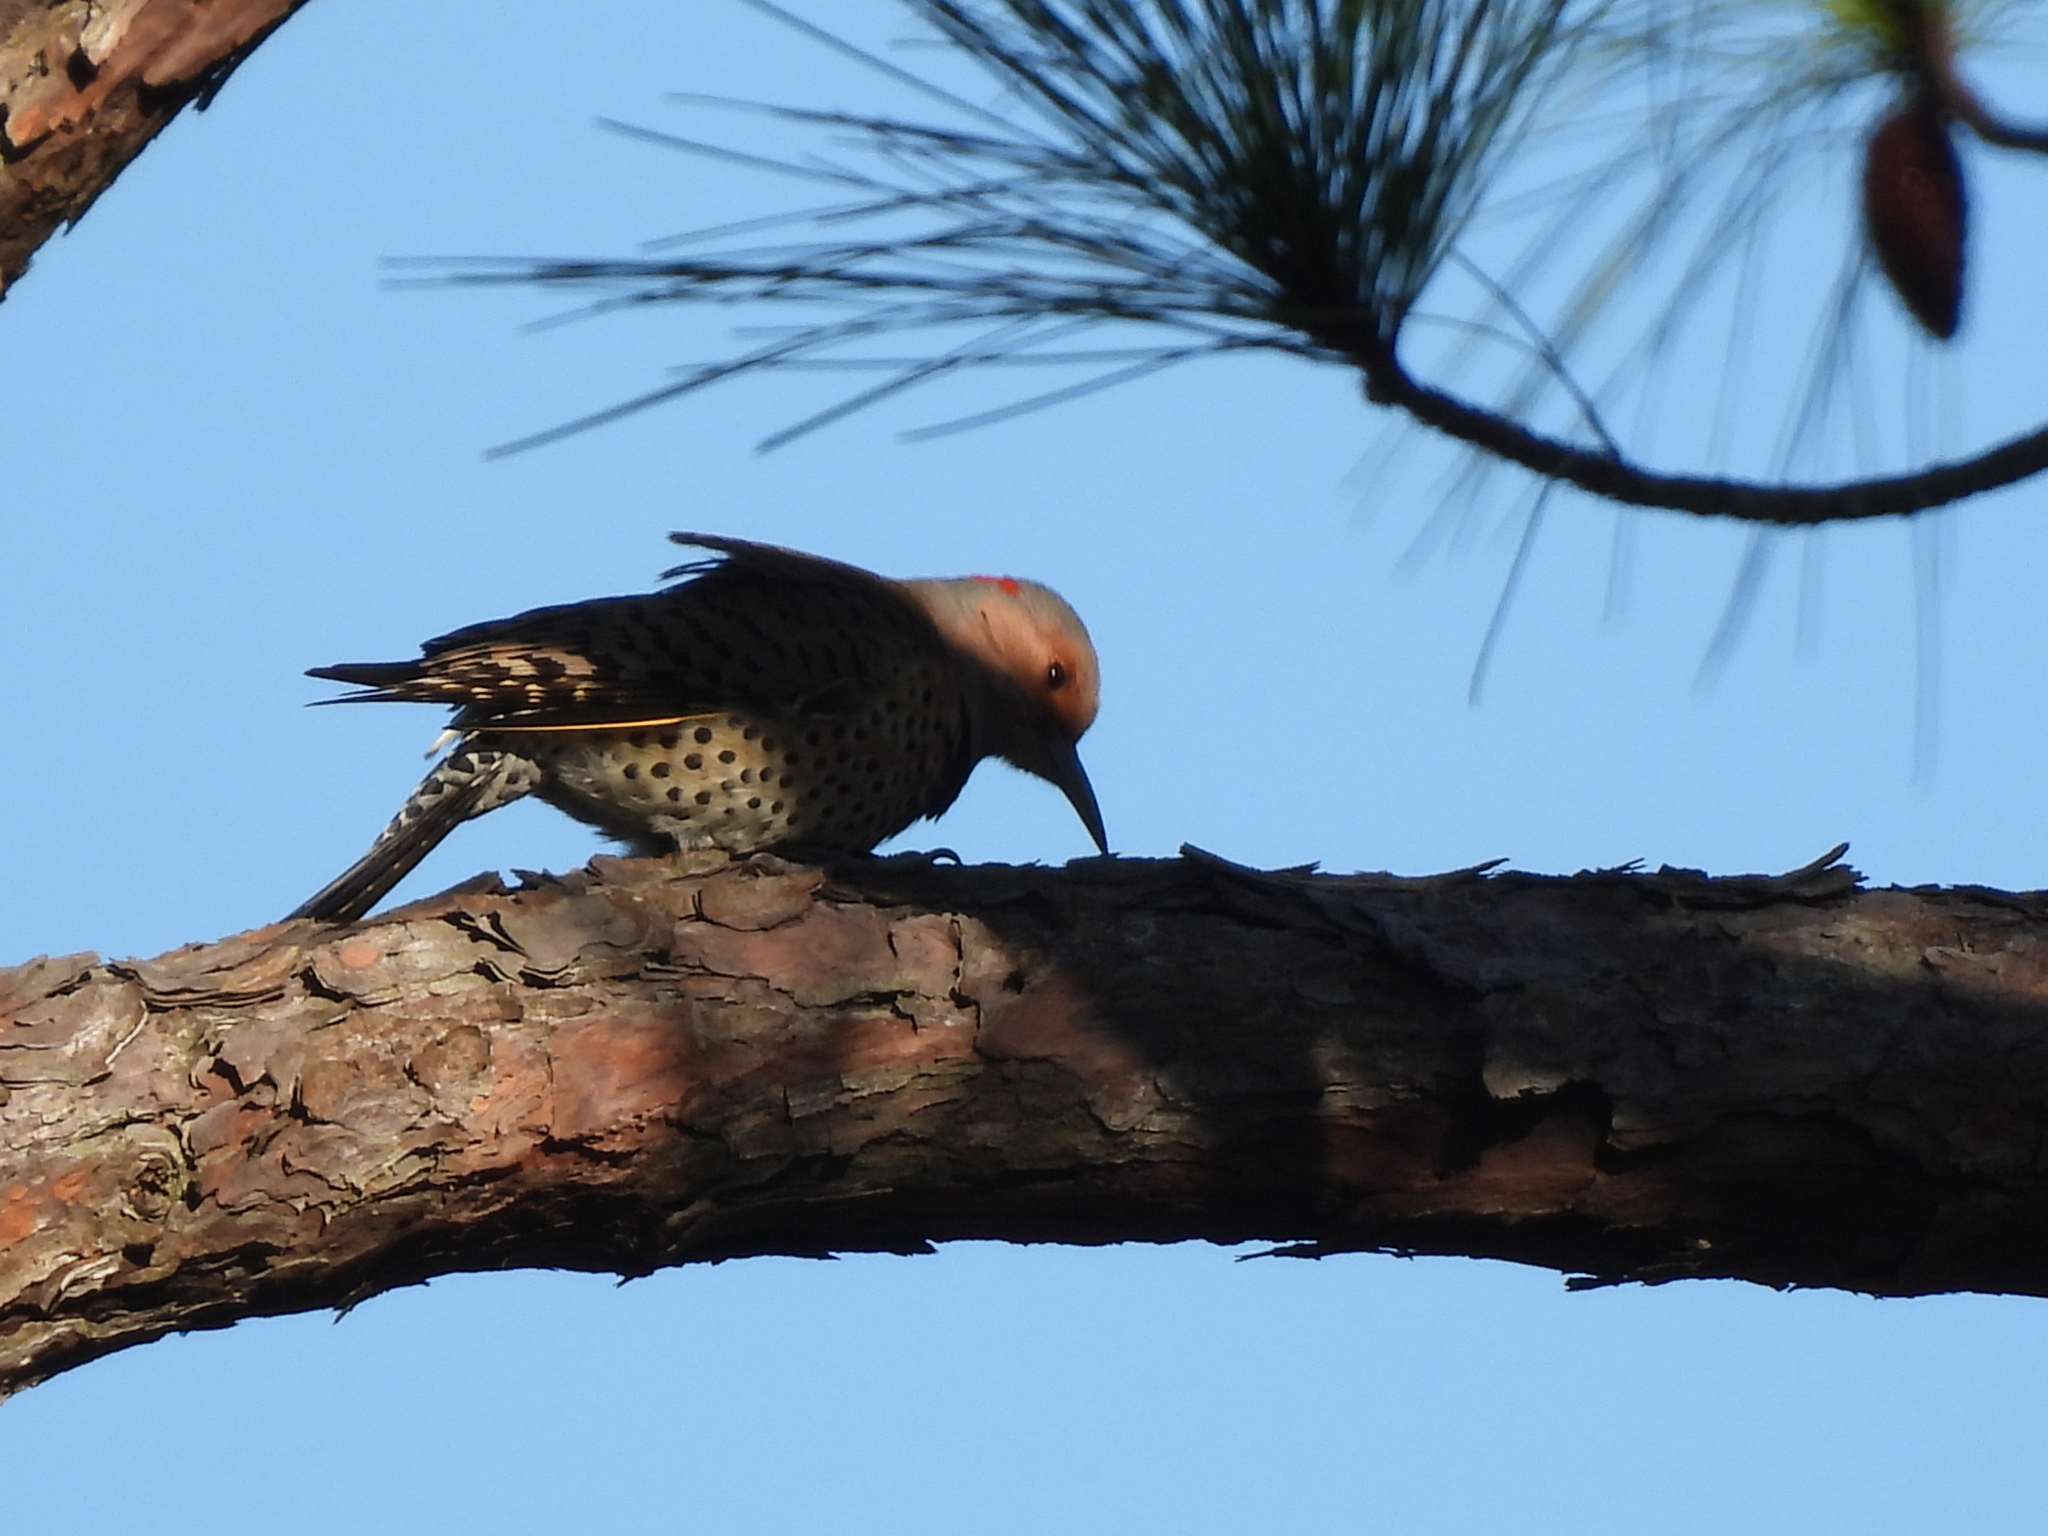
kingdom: Animalia
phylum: Chordata
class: Aves
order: Piciformes
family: Picidae
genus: Colaptes
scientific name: Colaptes auratus
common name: Northern flicker
